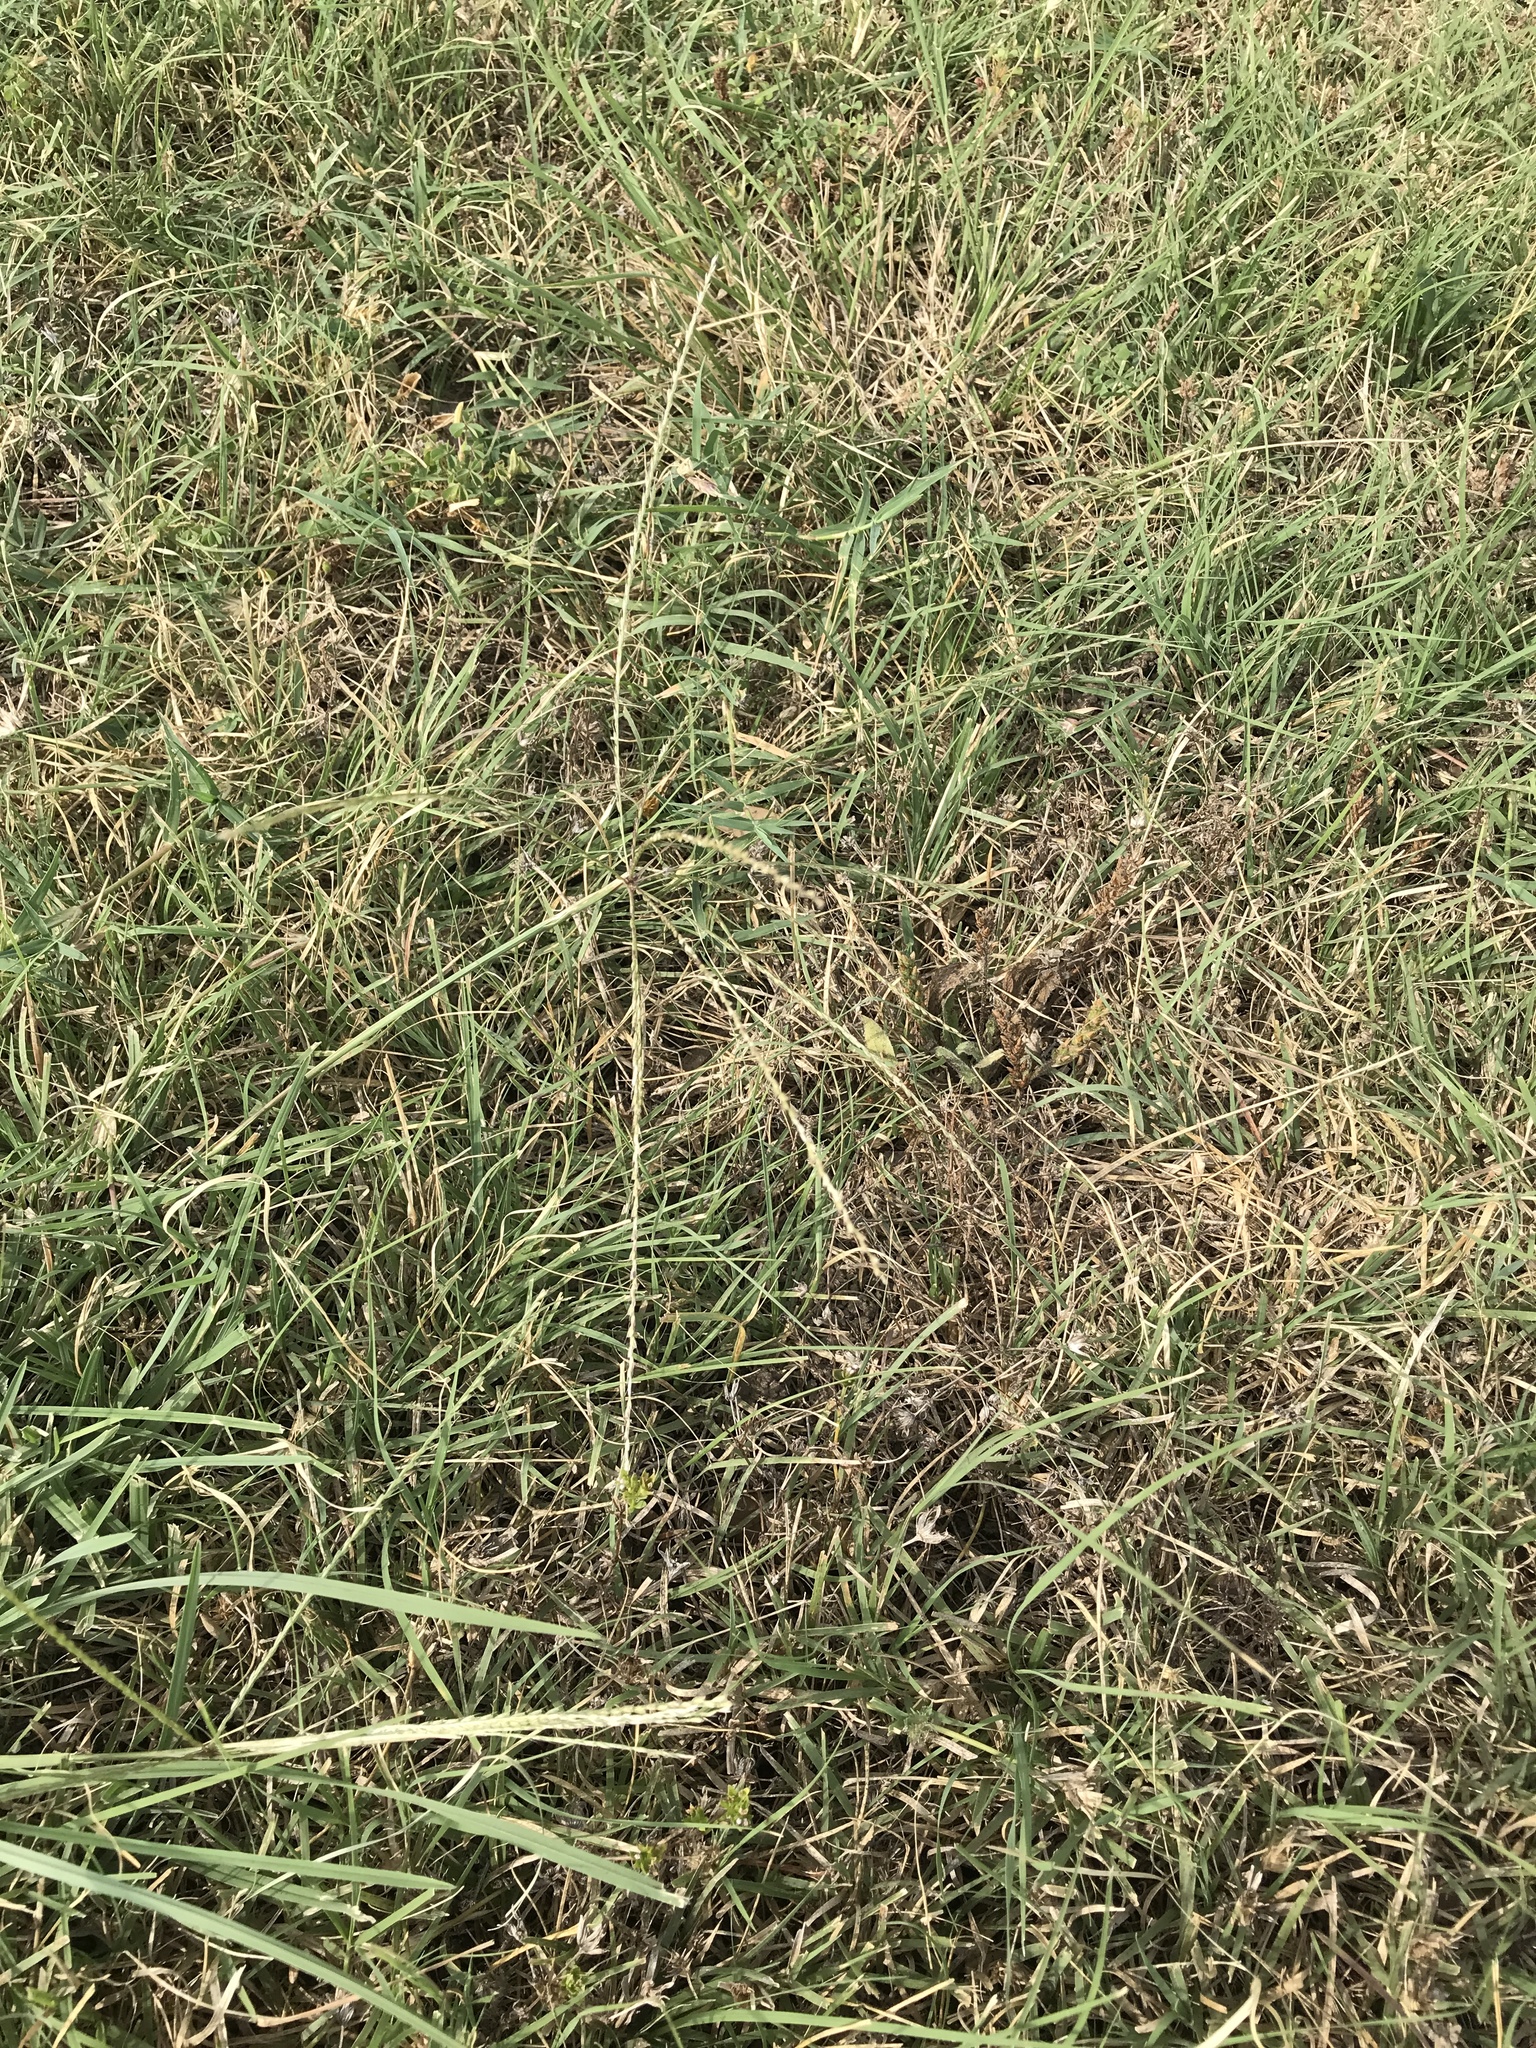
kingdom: Plantae
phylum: Tracheophyta
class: Liliopsida
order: Poales
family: Poaceae
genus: Chloris
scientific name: Chloris andropogonoides
